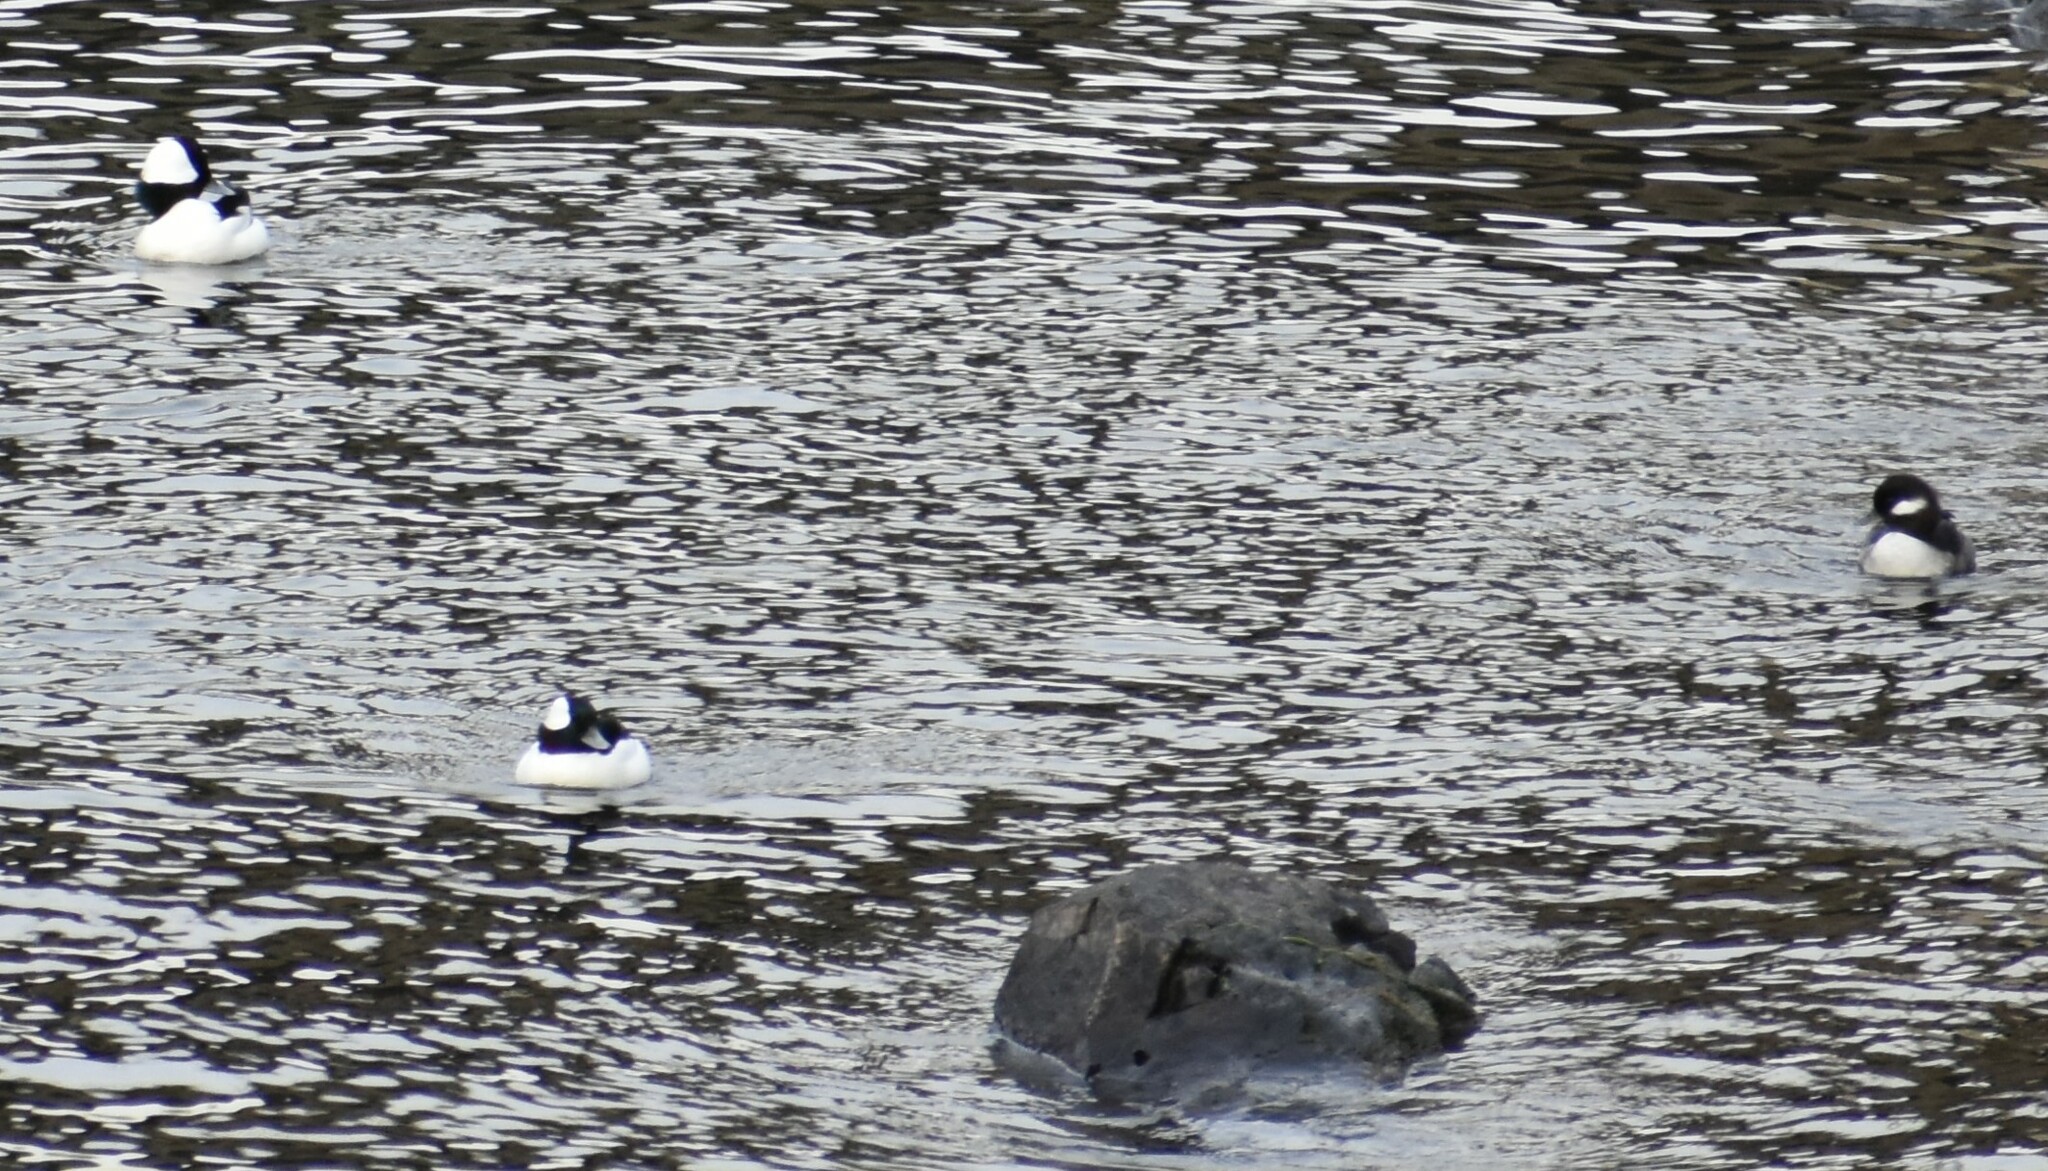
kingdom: Animalia
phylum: Chordata
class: Aves
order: Anseriformes
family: Anatidae
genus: Bucephala
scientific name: Bucephala albeola
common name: Bufflehead
